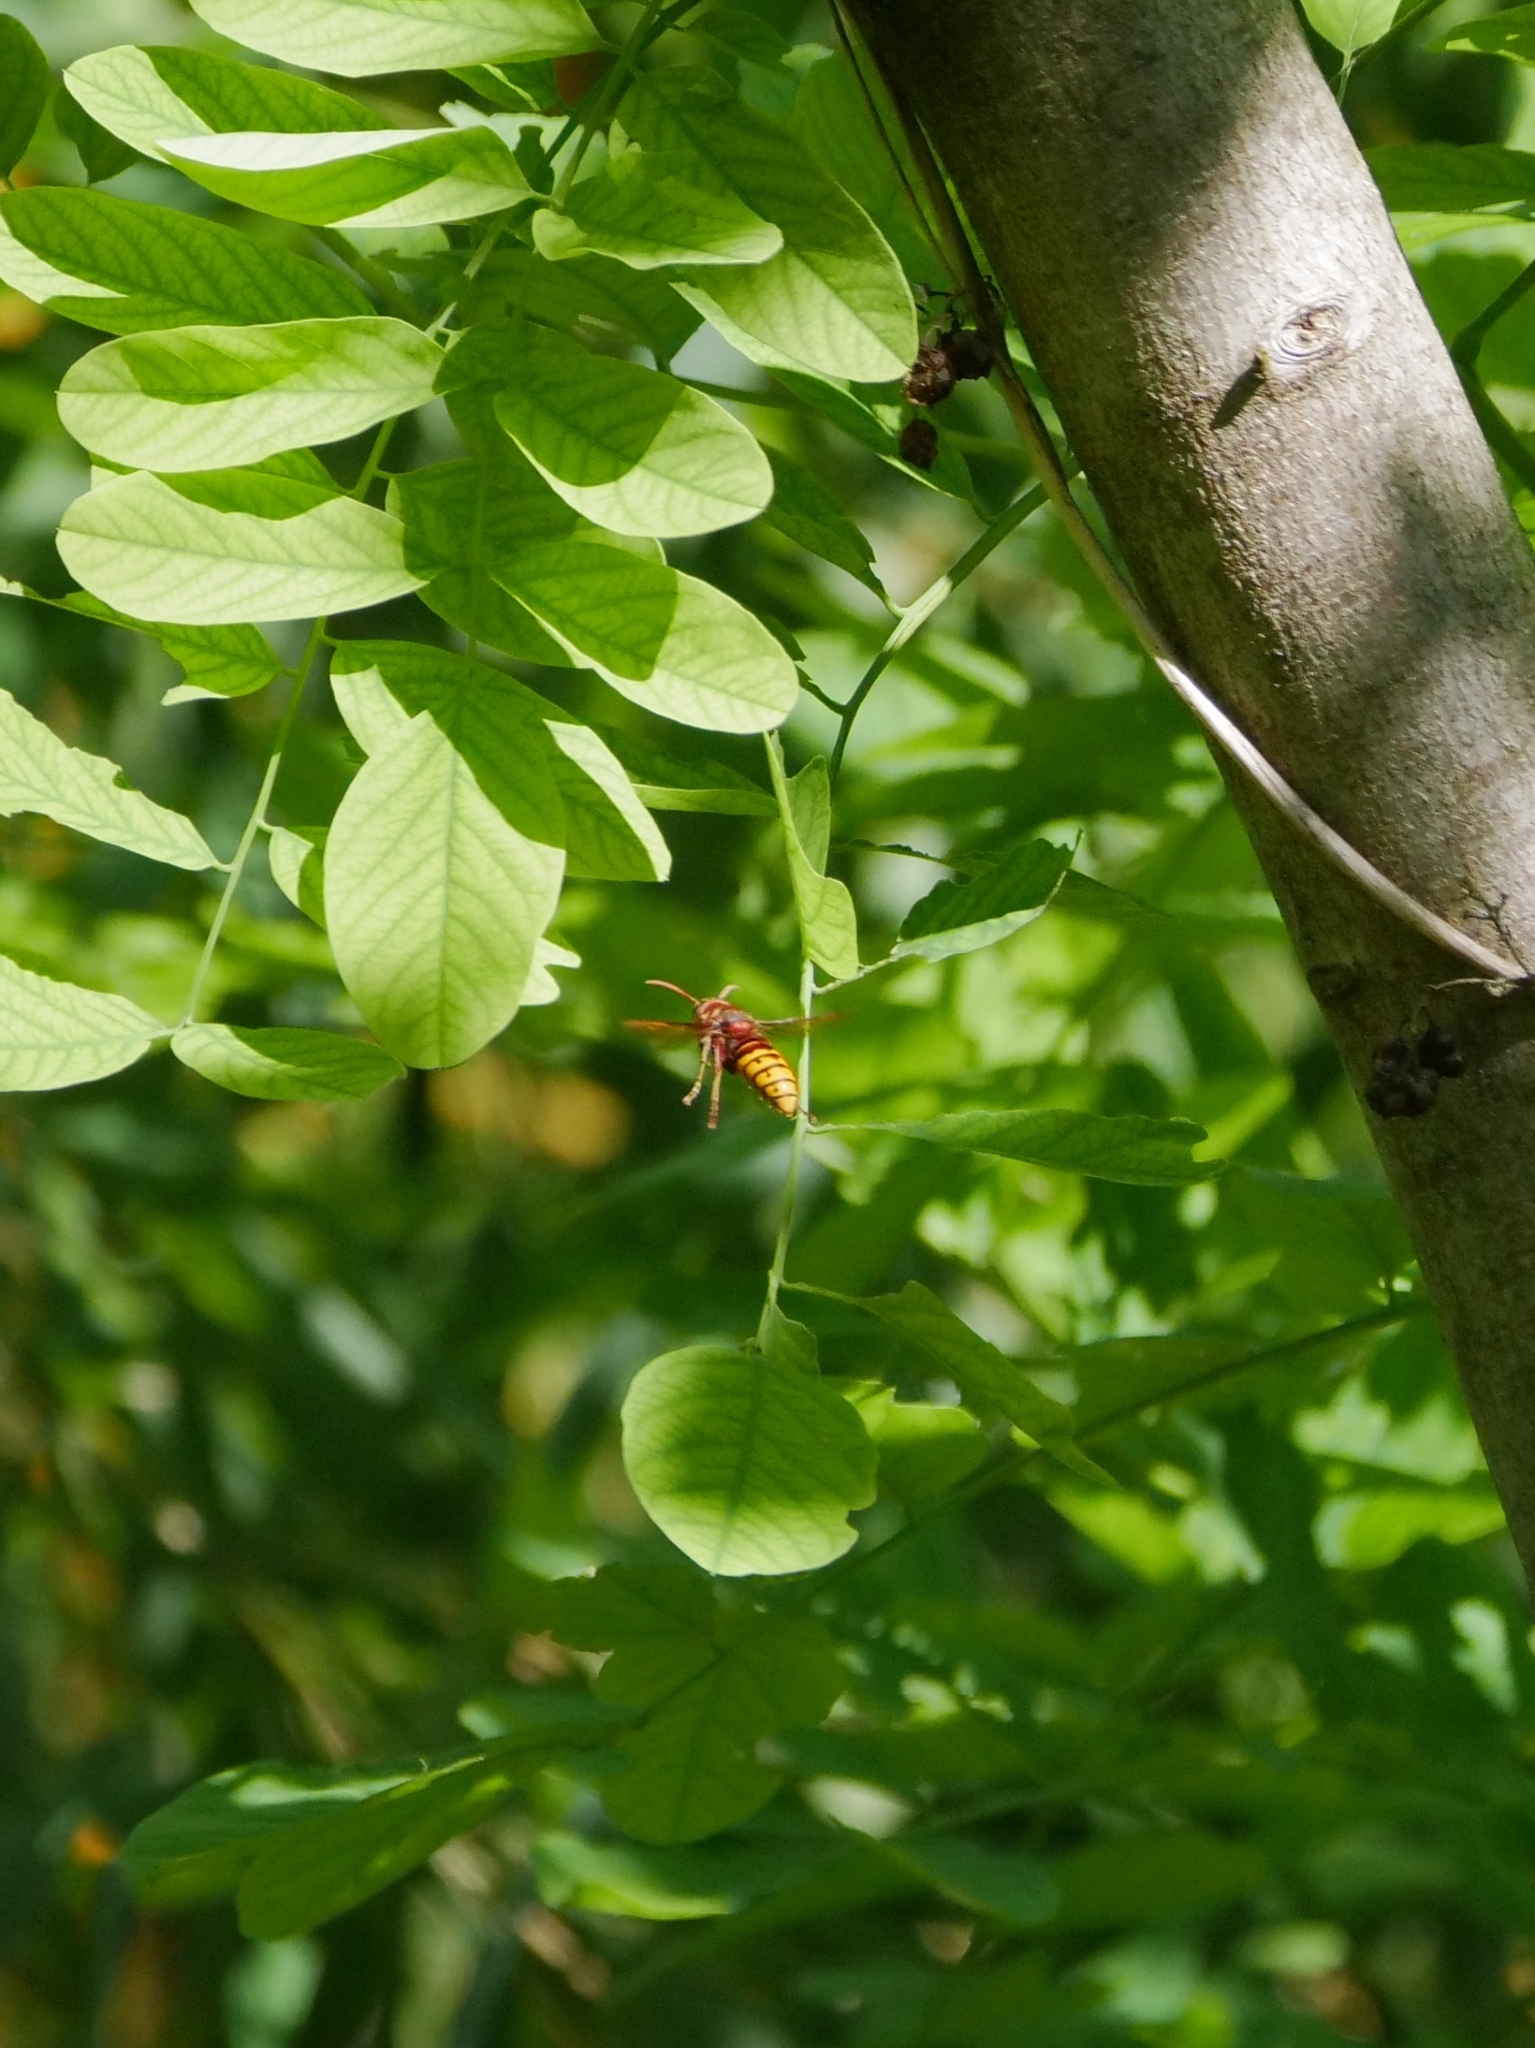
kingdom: Animalia
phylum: Arthropoda
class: Insecta
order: Hymenoptera
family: Vespidae
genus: Vespa
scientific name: Vespa crabro
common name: Hornet
